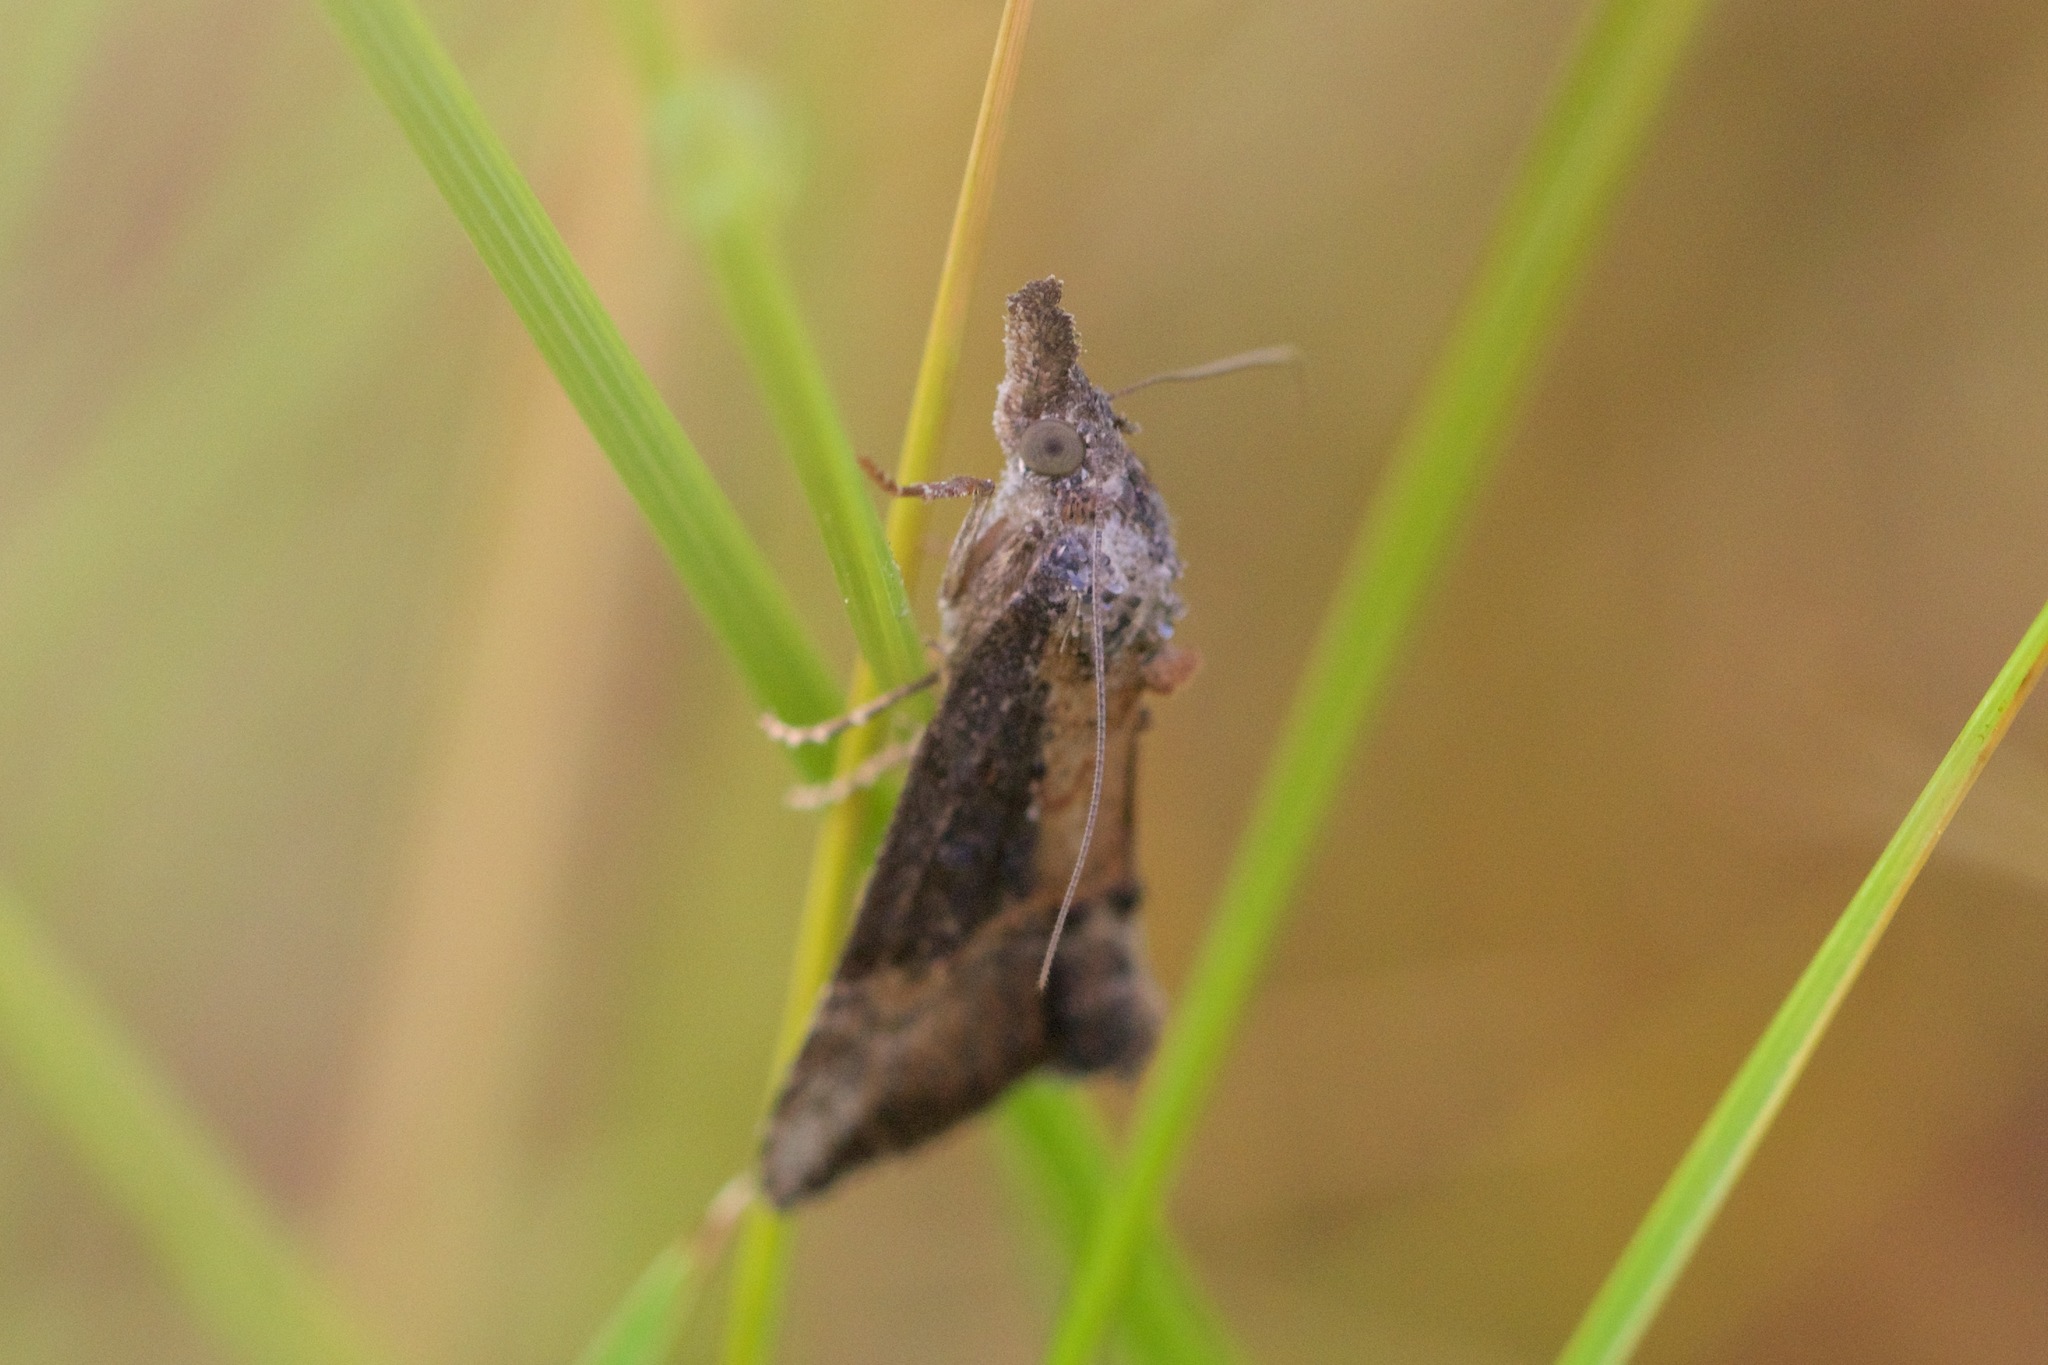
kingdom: Animalia
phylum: Arthropoda
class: Insecta
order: Lepidoptera
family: Erebidae
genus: Hypena
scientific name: Hypena scabra
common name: Green cloverworm
